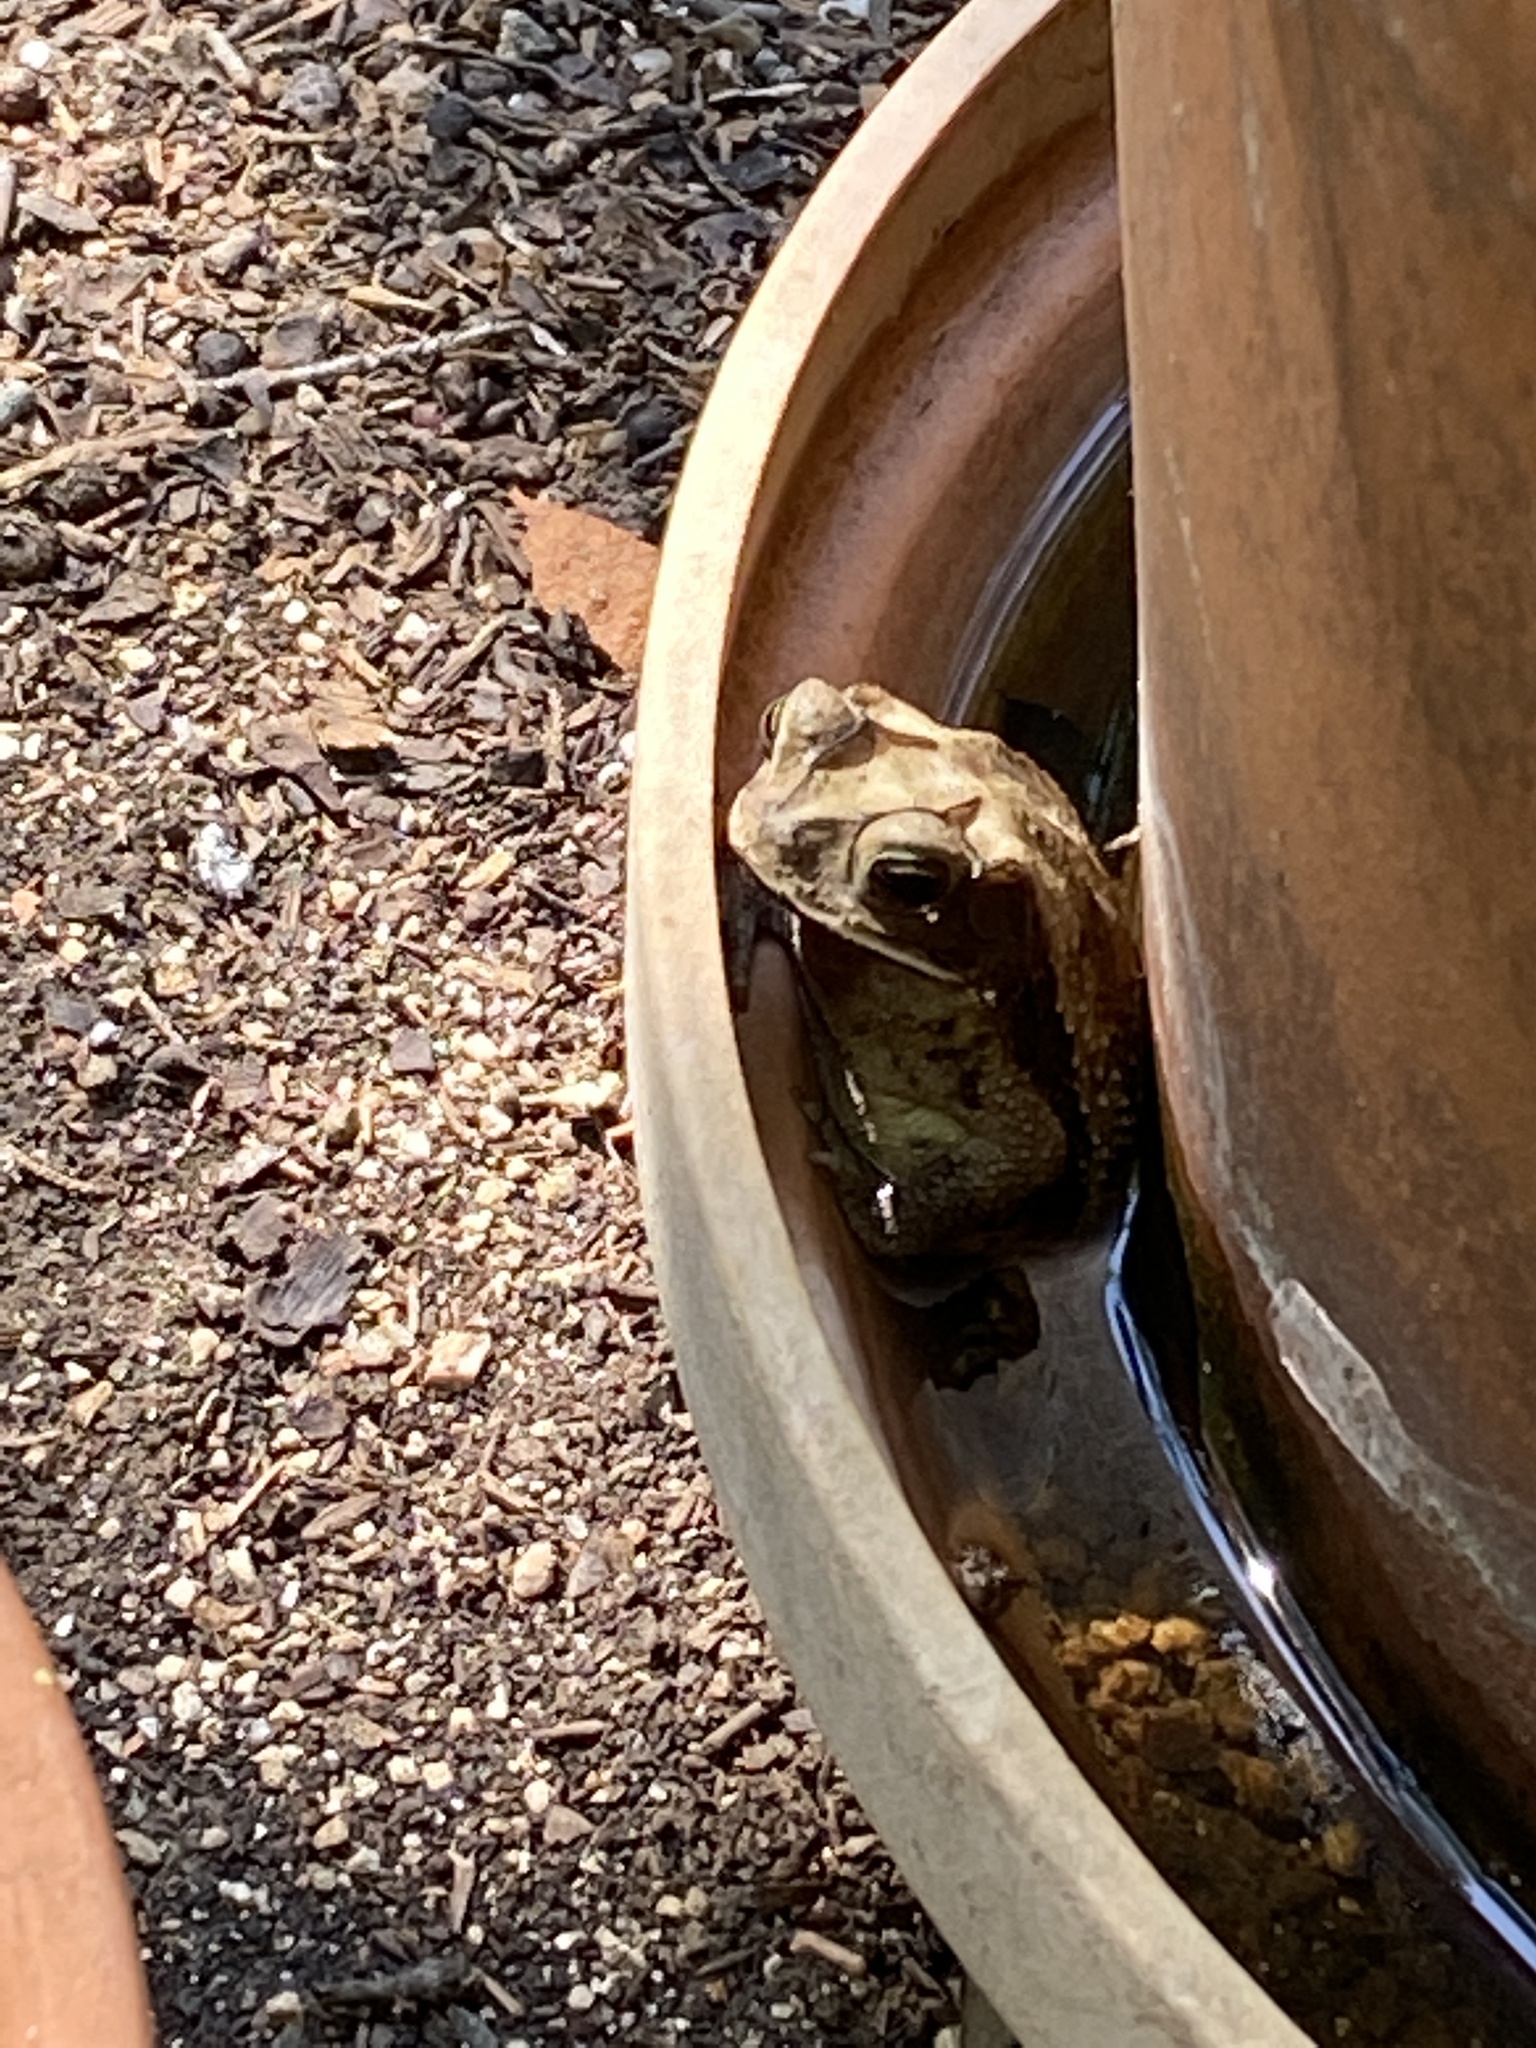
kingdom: Animalia
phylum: Chordata
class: Amphibia
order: Anura
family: Bufonidae
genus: Incilius
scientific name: Incilius nebulifer
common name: Gulf coast toad
